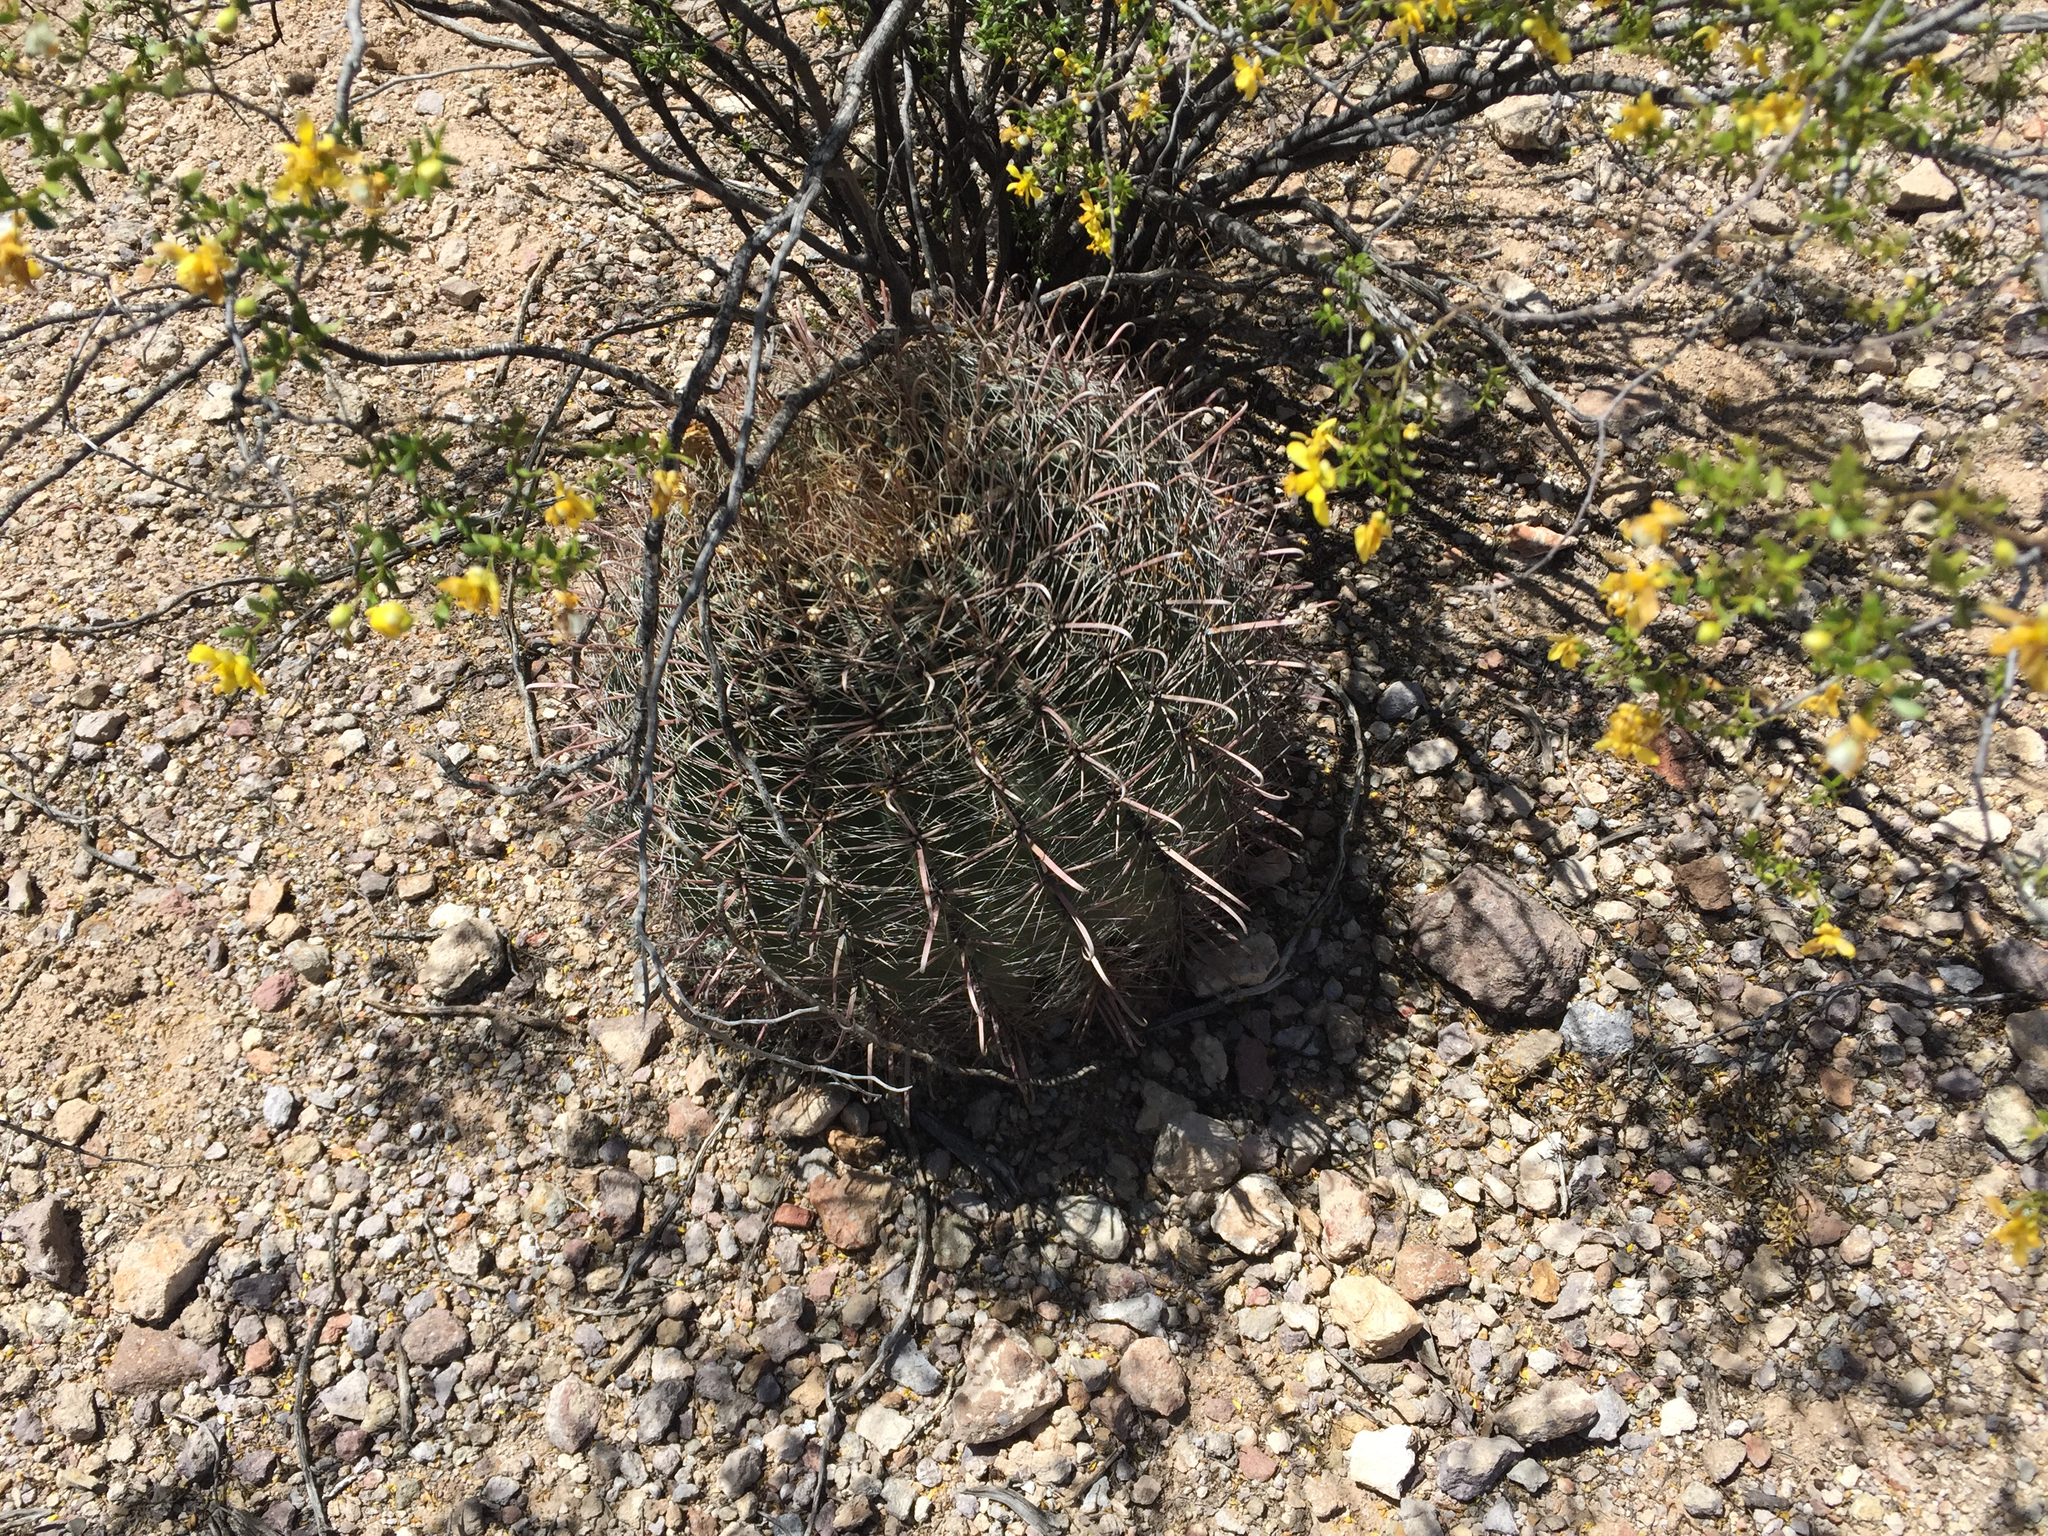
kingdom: Plantae
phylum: Tracheophyta
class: Magnoliopsida
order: Caryophyllales
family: Cactaceae
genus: Ferocactus
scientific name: Ferocactus wislizeni
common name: Candy barrel cactus
